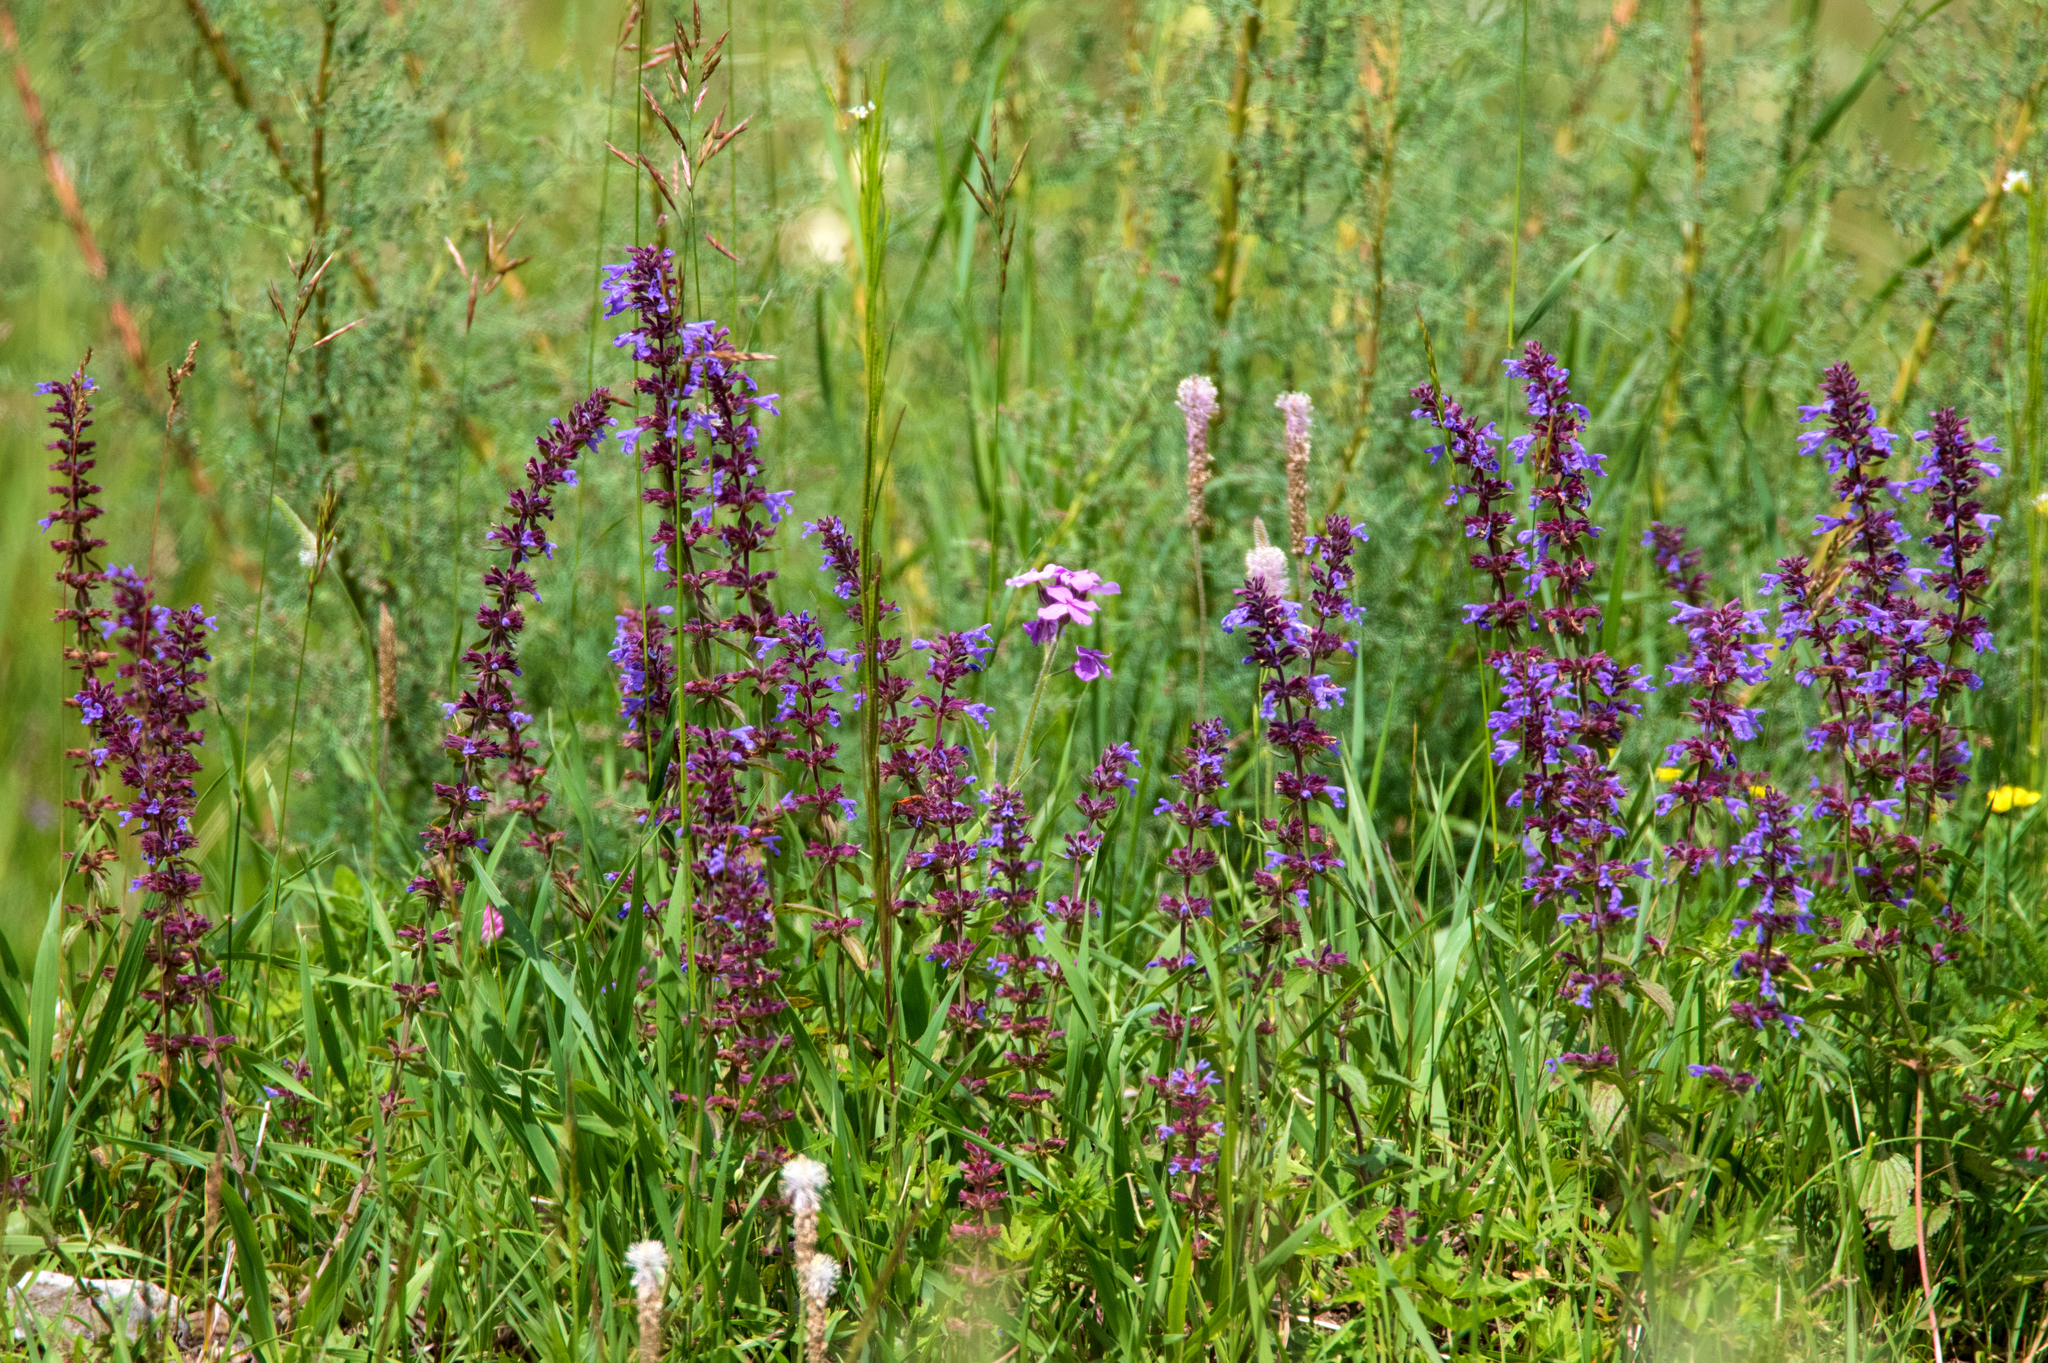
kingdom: Plantae
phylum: Tracheophyta
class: Magnoliopsida
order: Lamiales
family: Lamiaceae
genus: Dracocephalum
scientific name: Dracocephalum nutans
